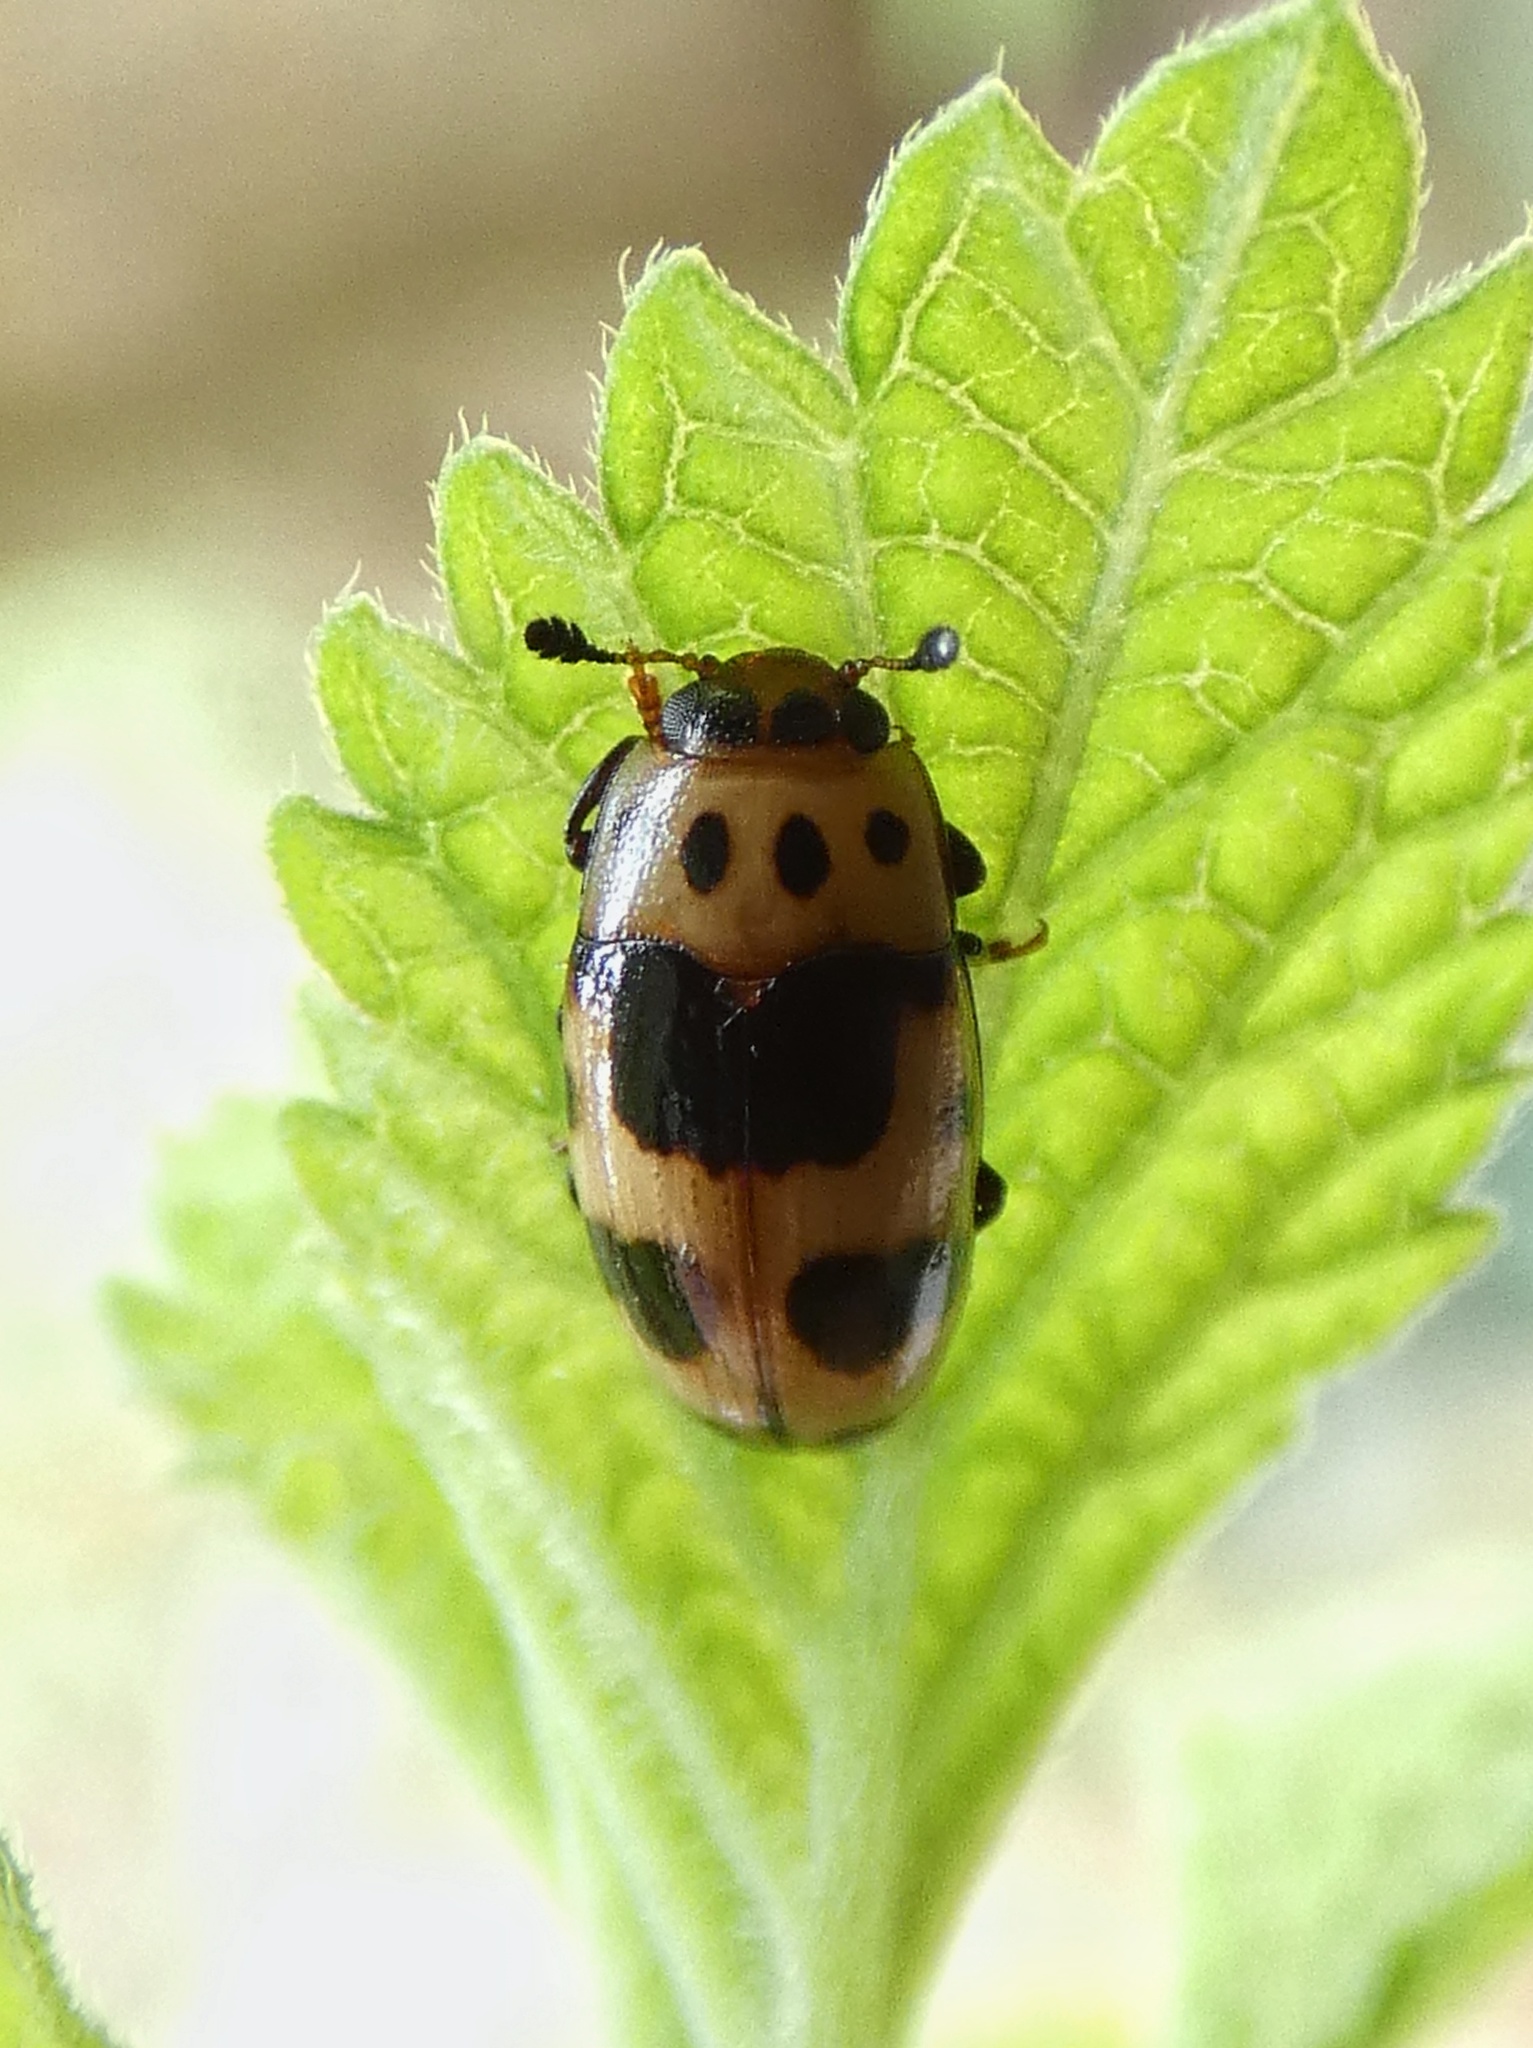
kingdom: Animalia
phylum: Arthropoda
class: Insecta
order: Coleoptera
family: Erotylidae
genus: Ischyrus
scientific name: Ischyrus
